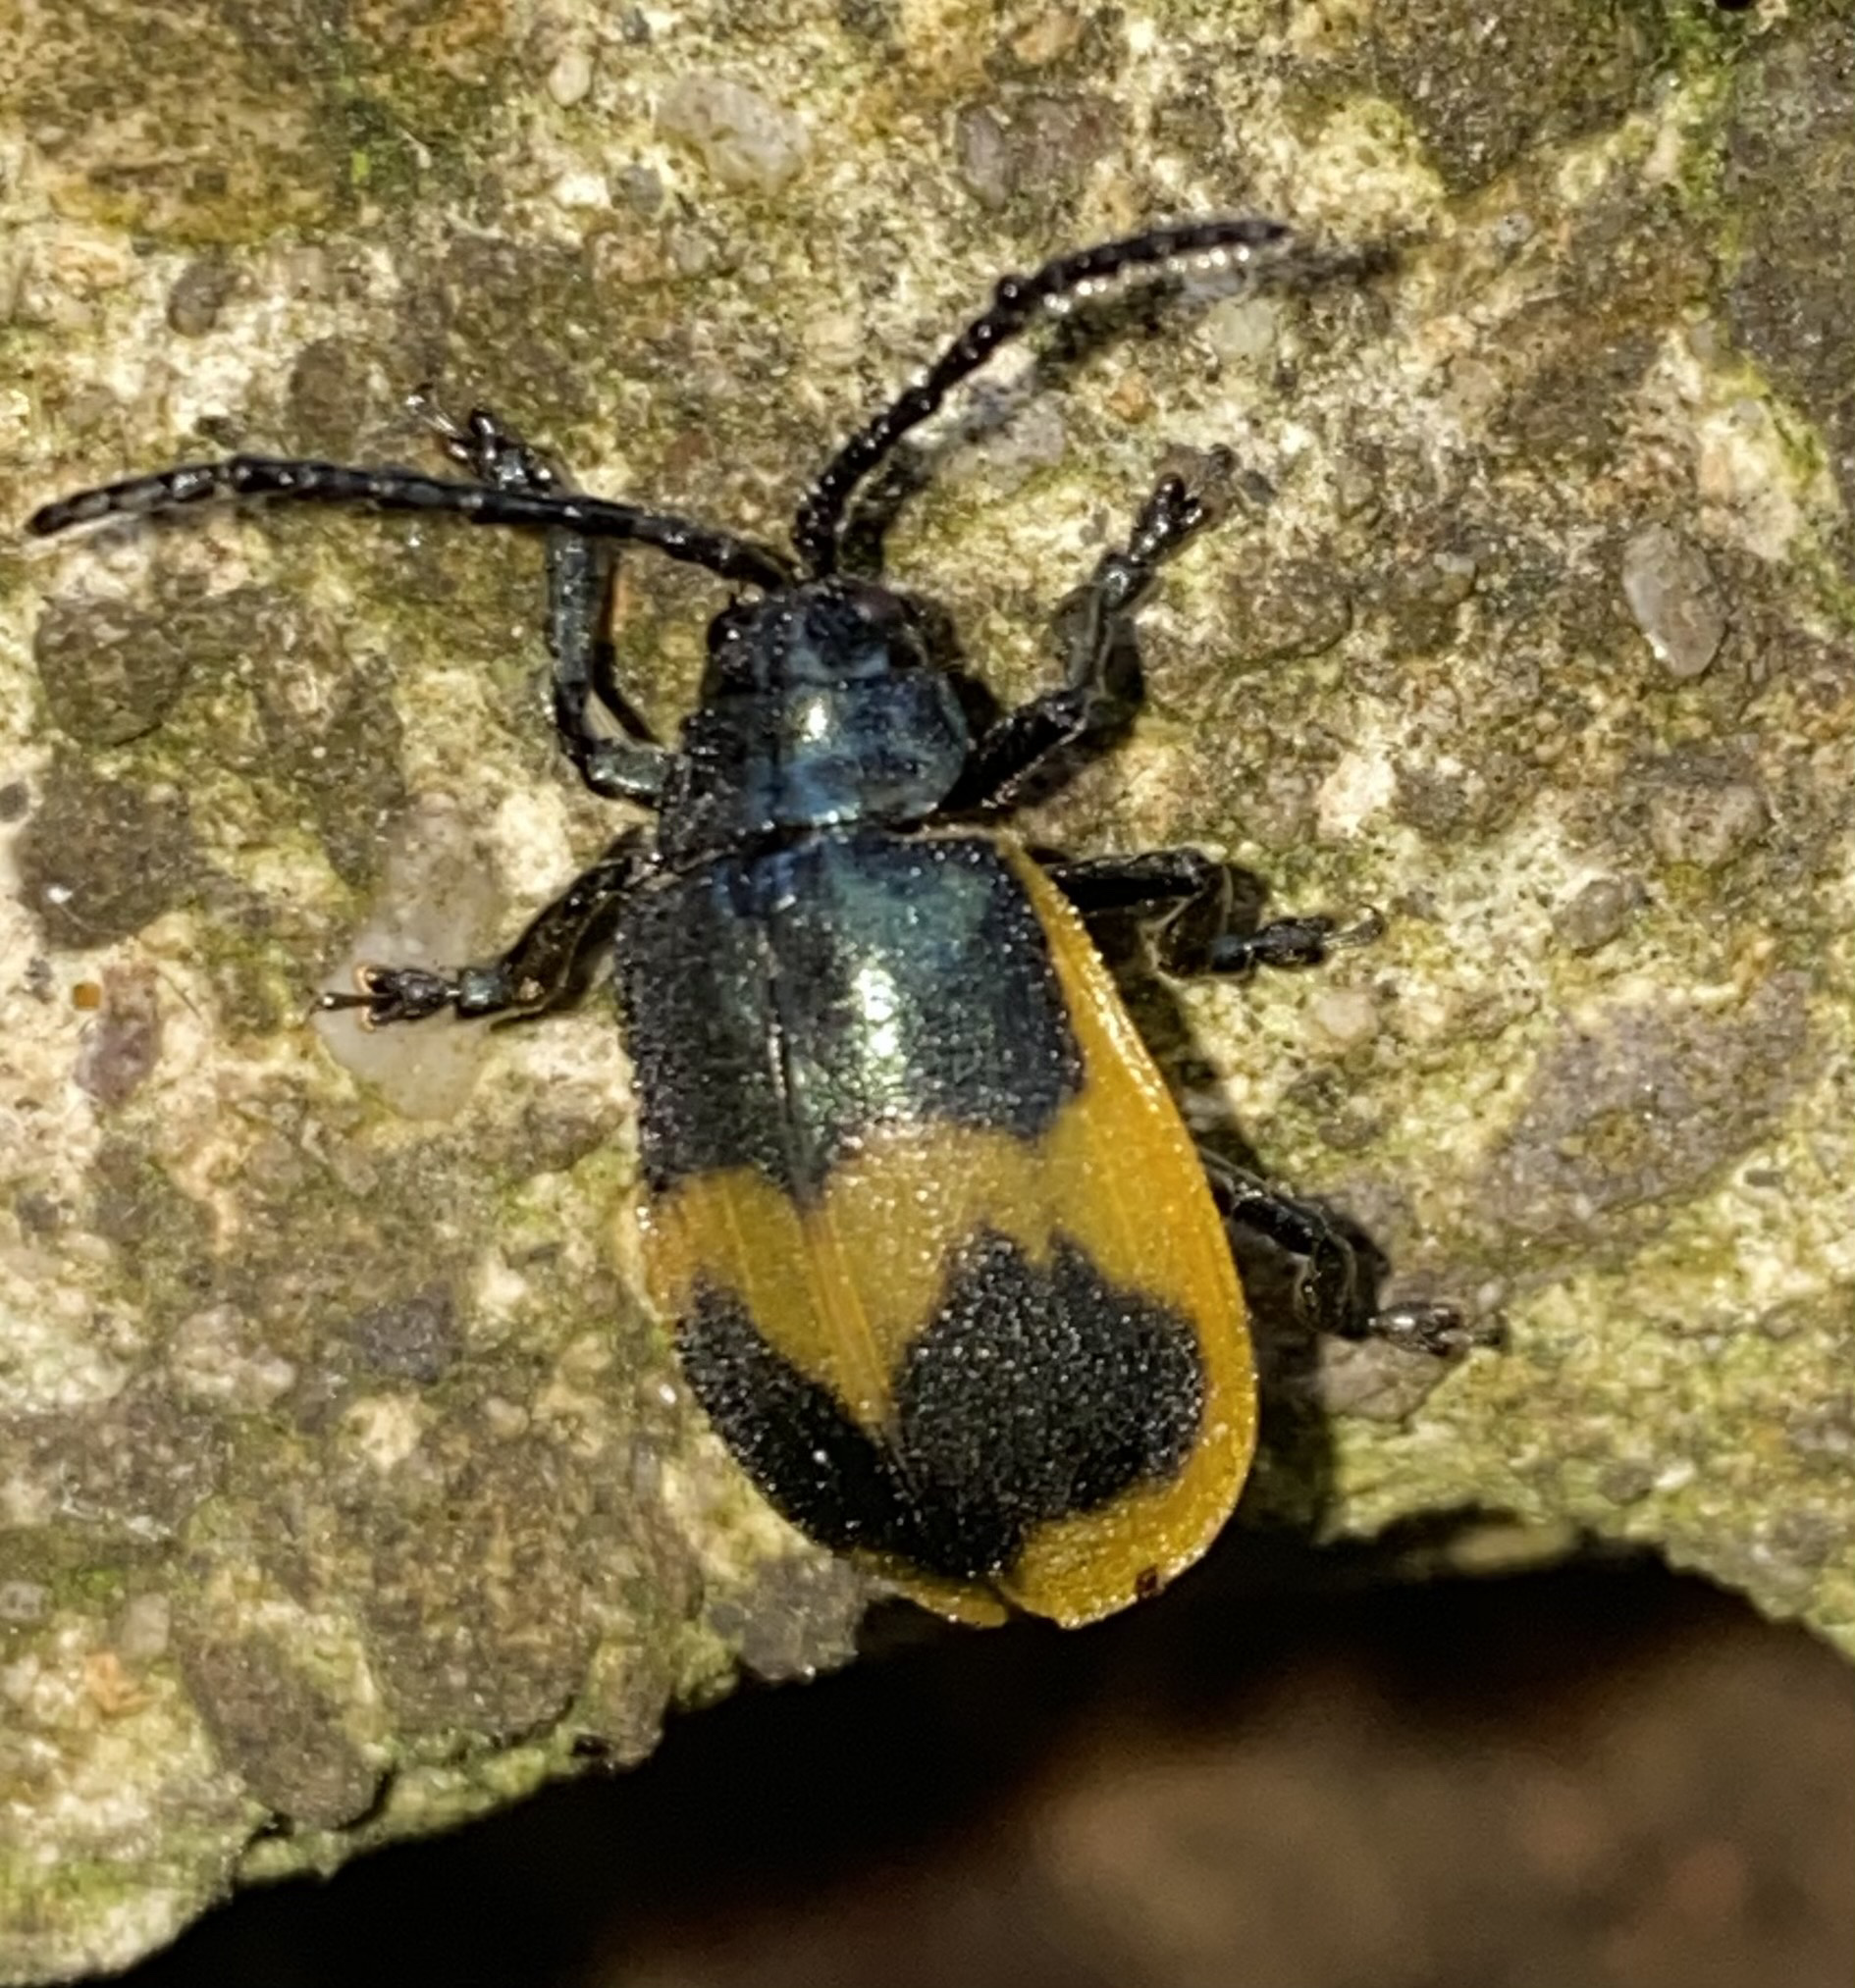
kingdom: Animalia
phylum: Arthropoda
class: Insecta
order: Coleoptera
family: Chrysomelidae
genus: Monocesta
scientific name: Monocesta
